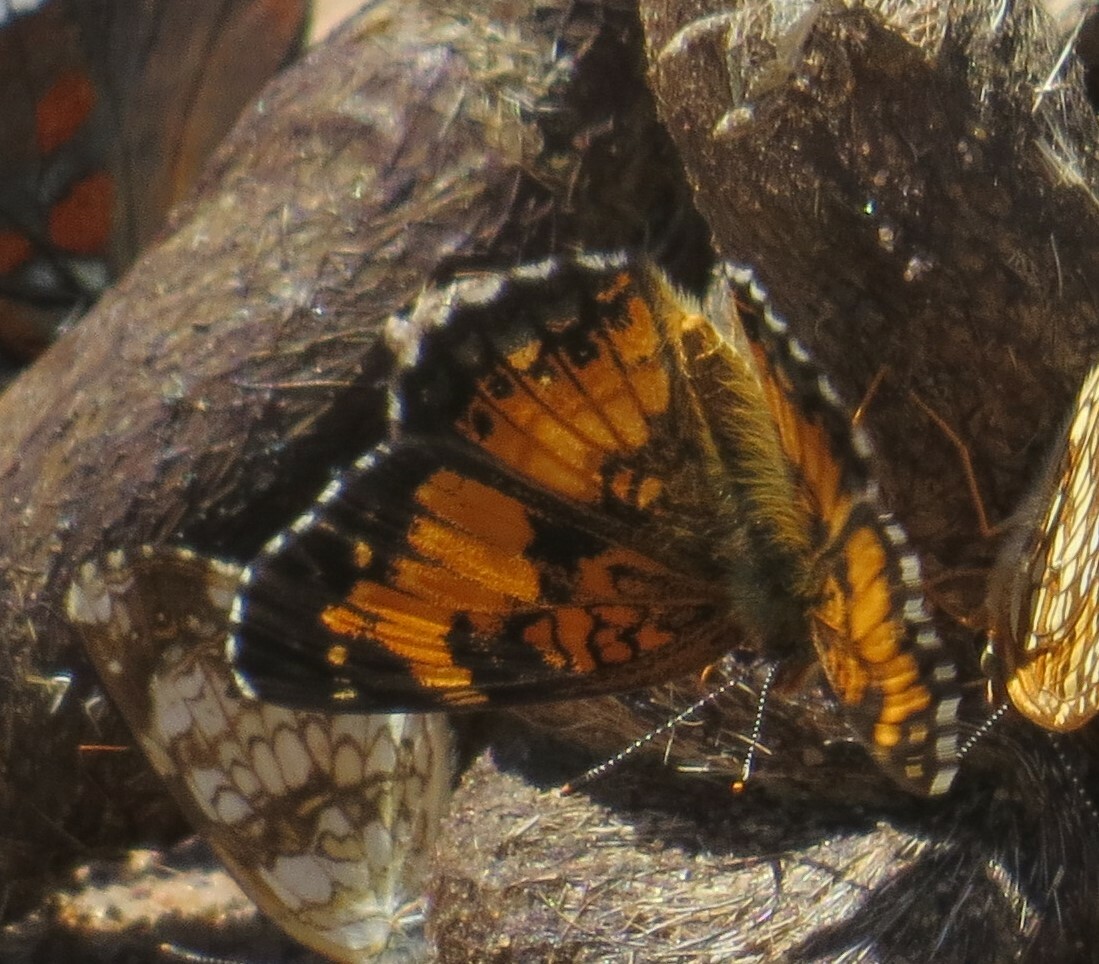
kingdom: Animalia
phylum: Arthropoda
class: Insecta
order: Lepidoptera
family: Nymphalidae
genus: Chlosyne
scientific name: Chlosyne harrisii
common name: Harris's checkerspot
